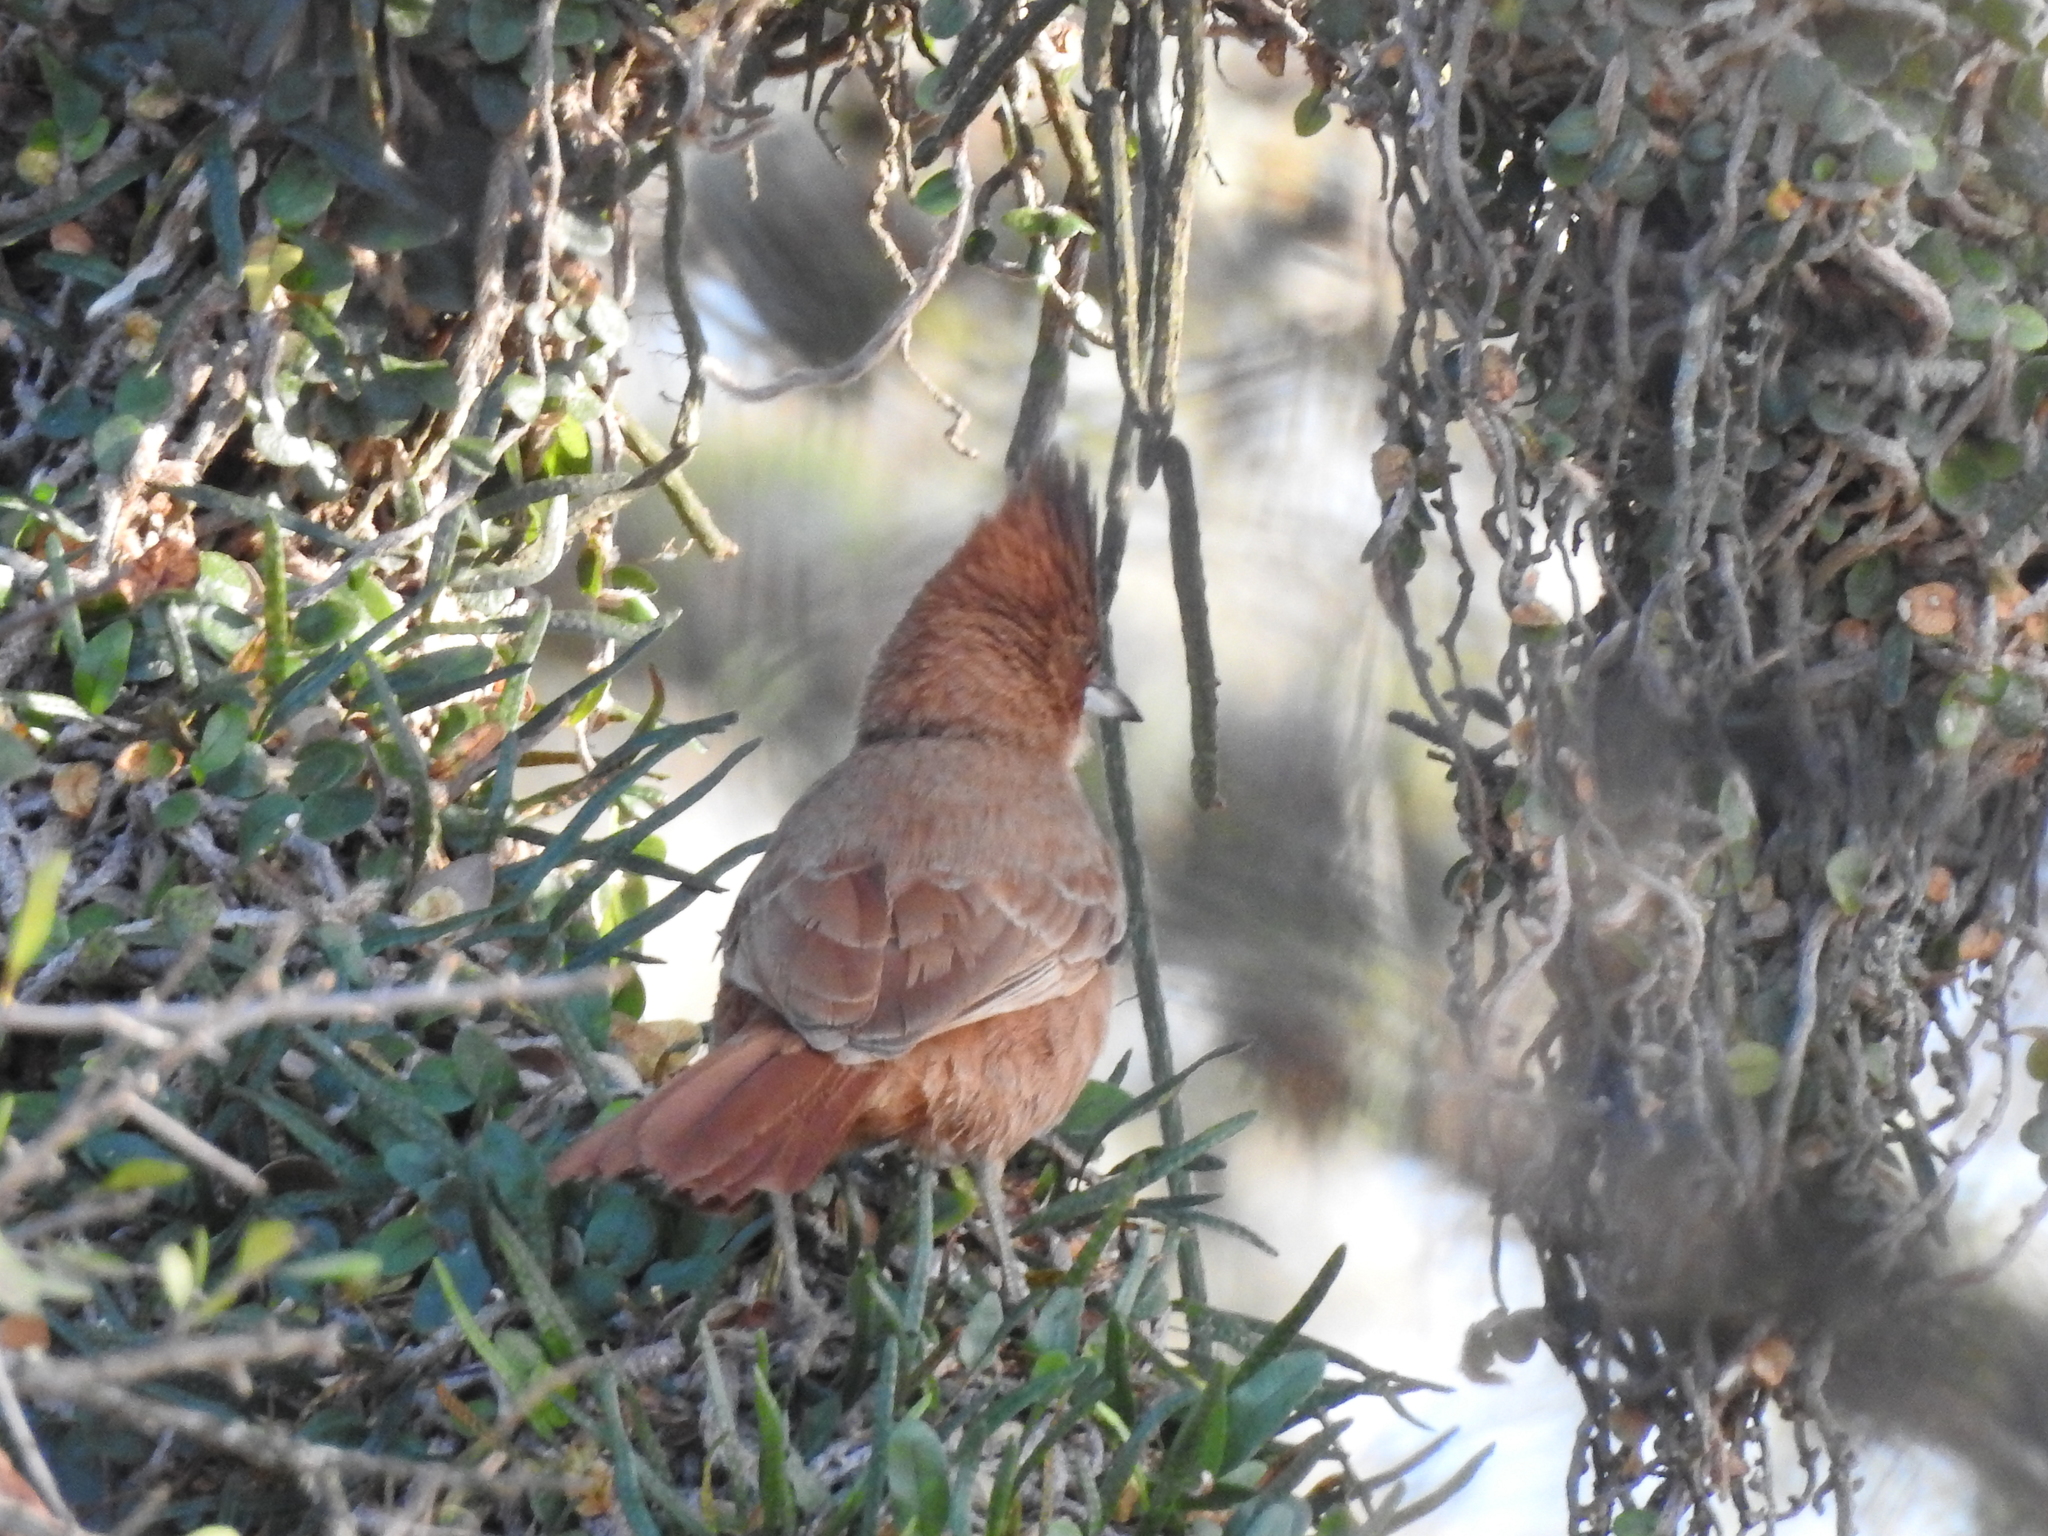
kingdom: Animalia
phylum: Chordata
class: Aves
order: Passeriformes
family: Furnariidae
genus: Pseudoseisura
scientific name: Pseudoseisura lophotes
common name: Brown cacholote
